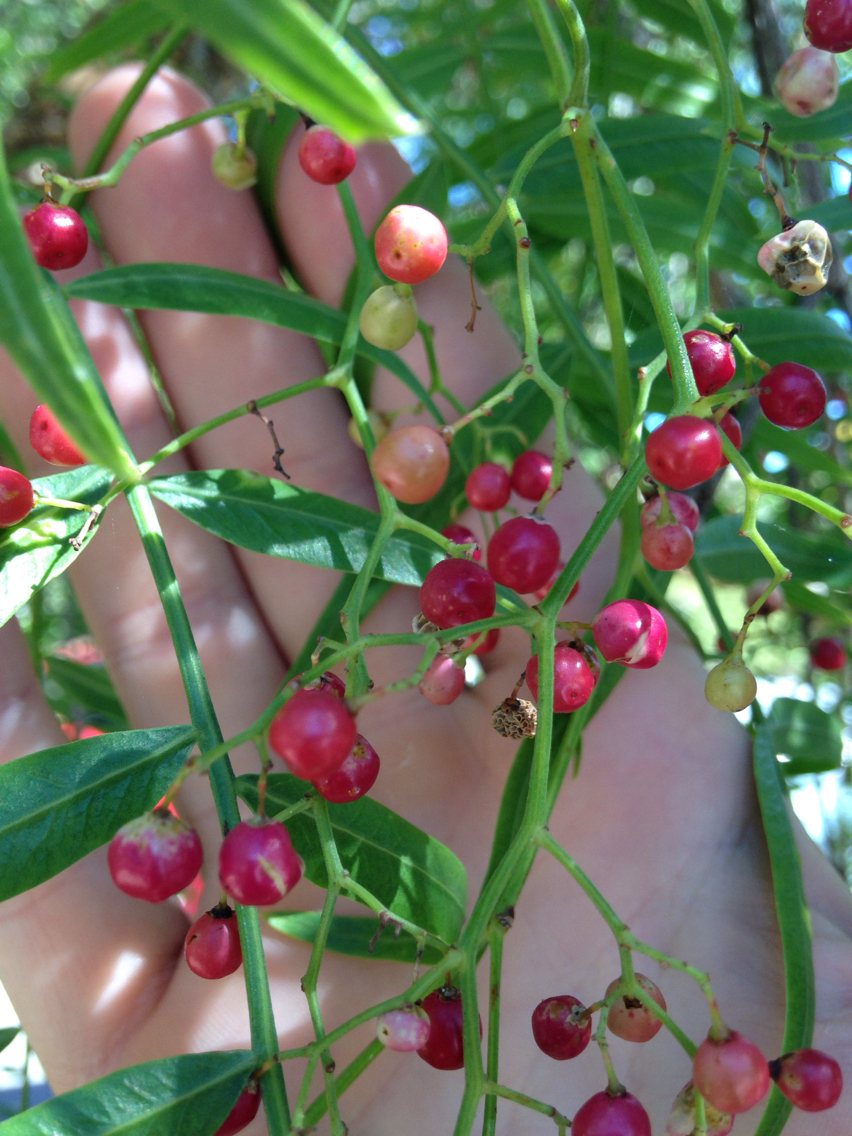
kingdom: Plantae
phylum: Tracheophyta
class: Magnoliopsida
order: Sapindales
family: Anacardiaceae
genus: Schinus
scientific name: Schinus molle
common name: Peruvian peppertree
